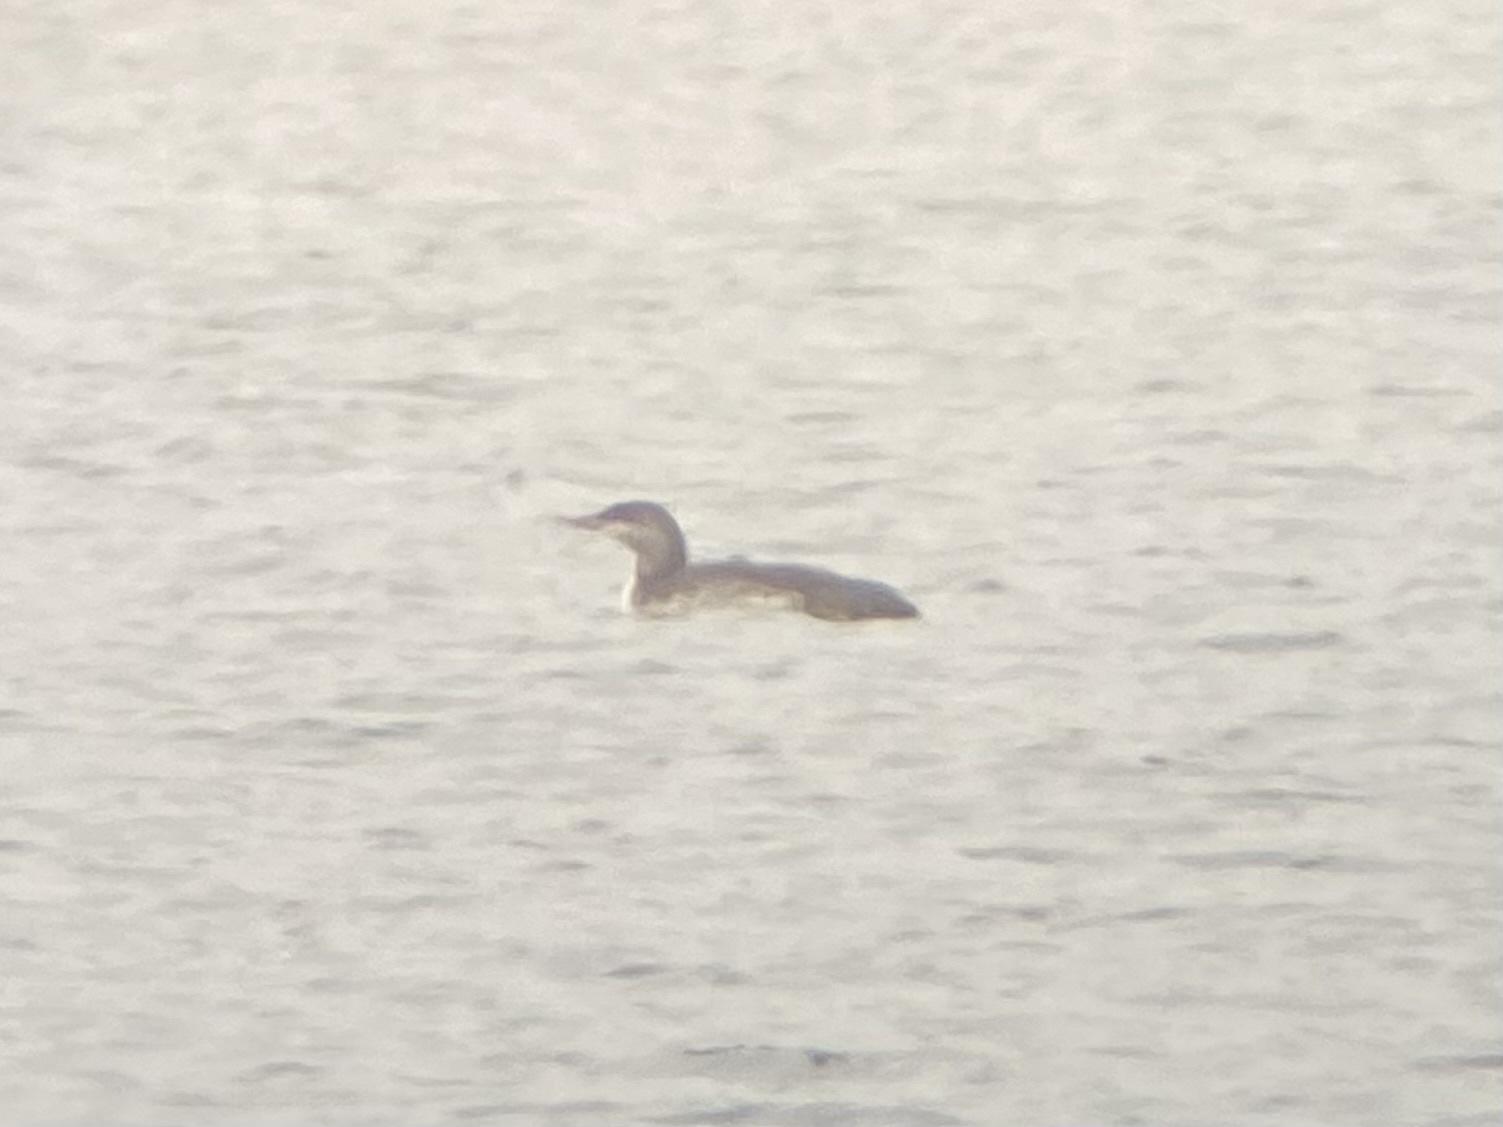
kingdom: Animalia
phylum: Chordata
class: Aves
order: Gaviiformes
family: Gaviidae
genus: Gavia
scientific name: Gavia stellata
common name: Red-throated loon
